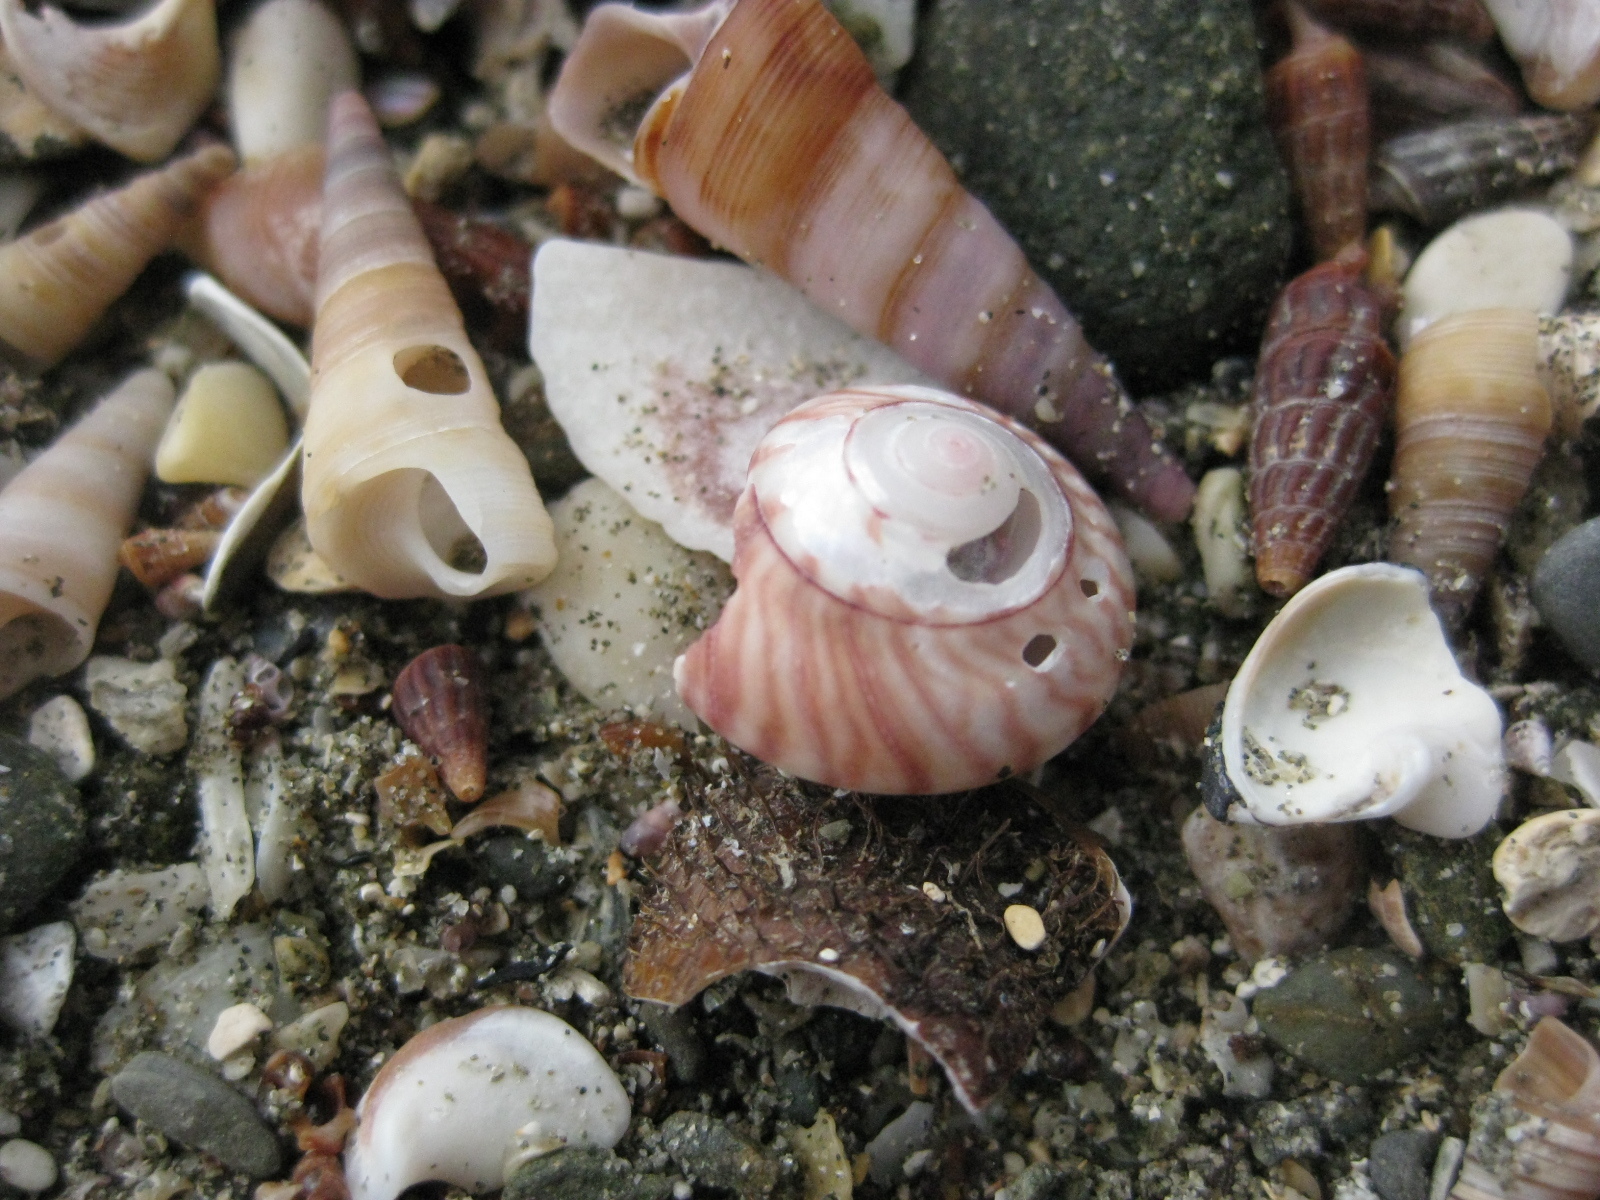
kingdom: Animalia
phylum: Mollusca
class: Gastropoda
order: Trochida
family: Trochidae
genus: Zethalia
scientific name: Zethalia zelandica
